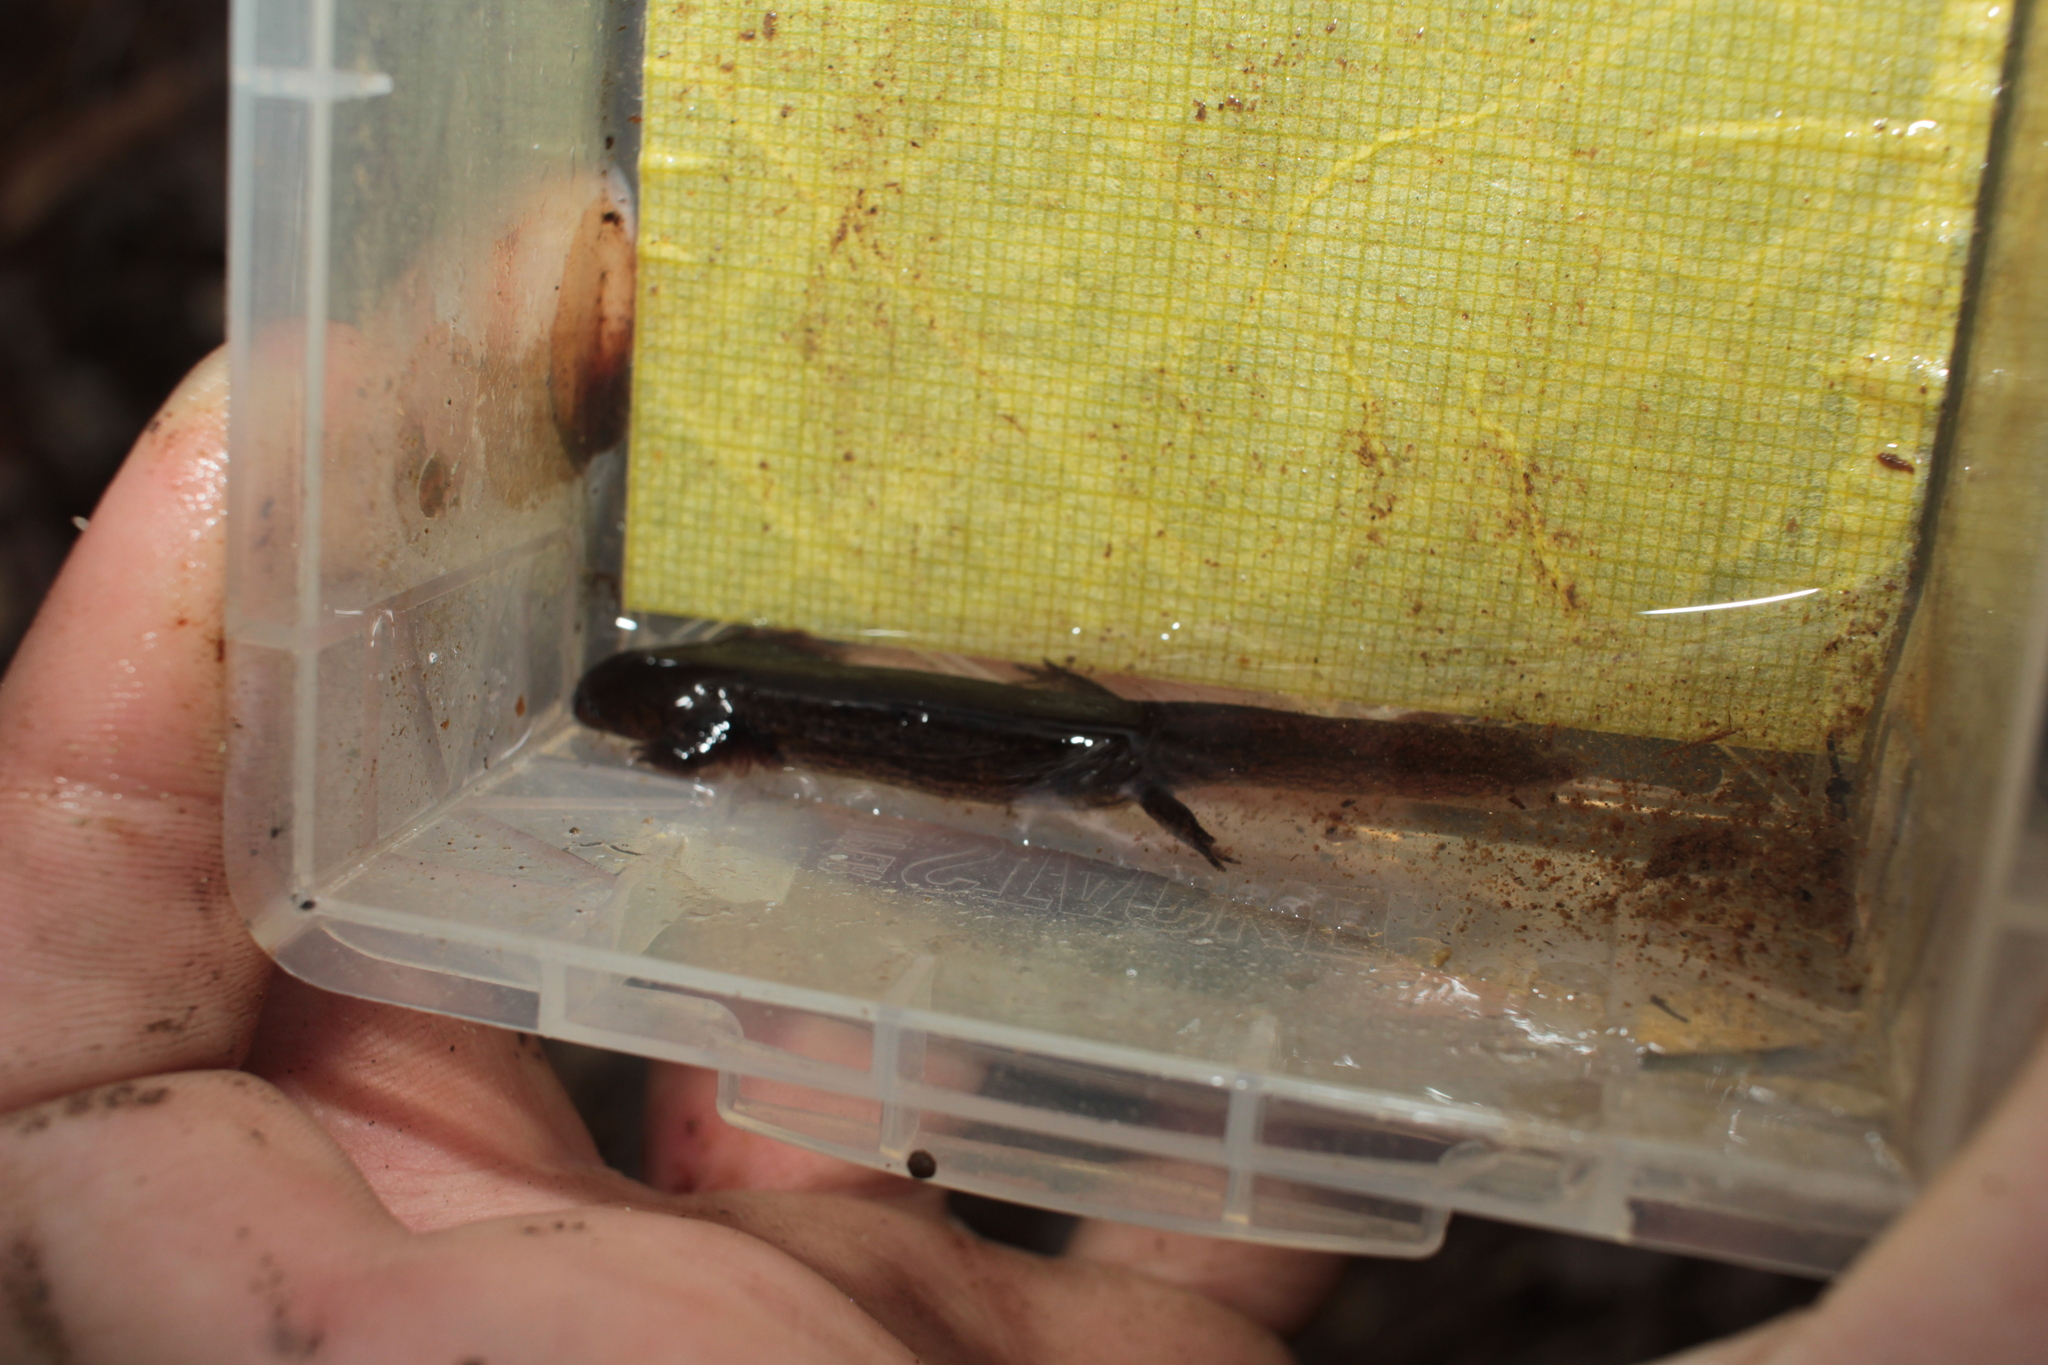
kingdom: Animalia
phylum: Chordata
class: Amphibia
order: Caudata
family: Plethodontidae
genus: Pseudotriton
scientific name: Pseudotriton montanus
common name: Mud salamander
